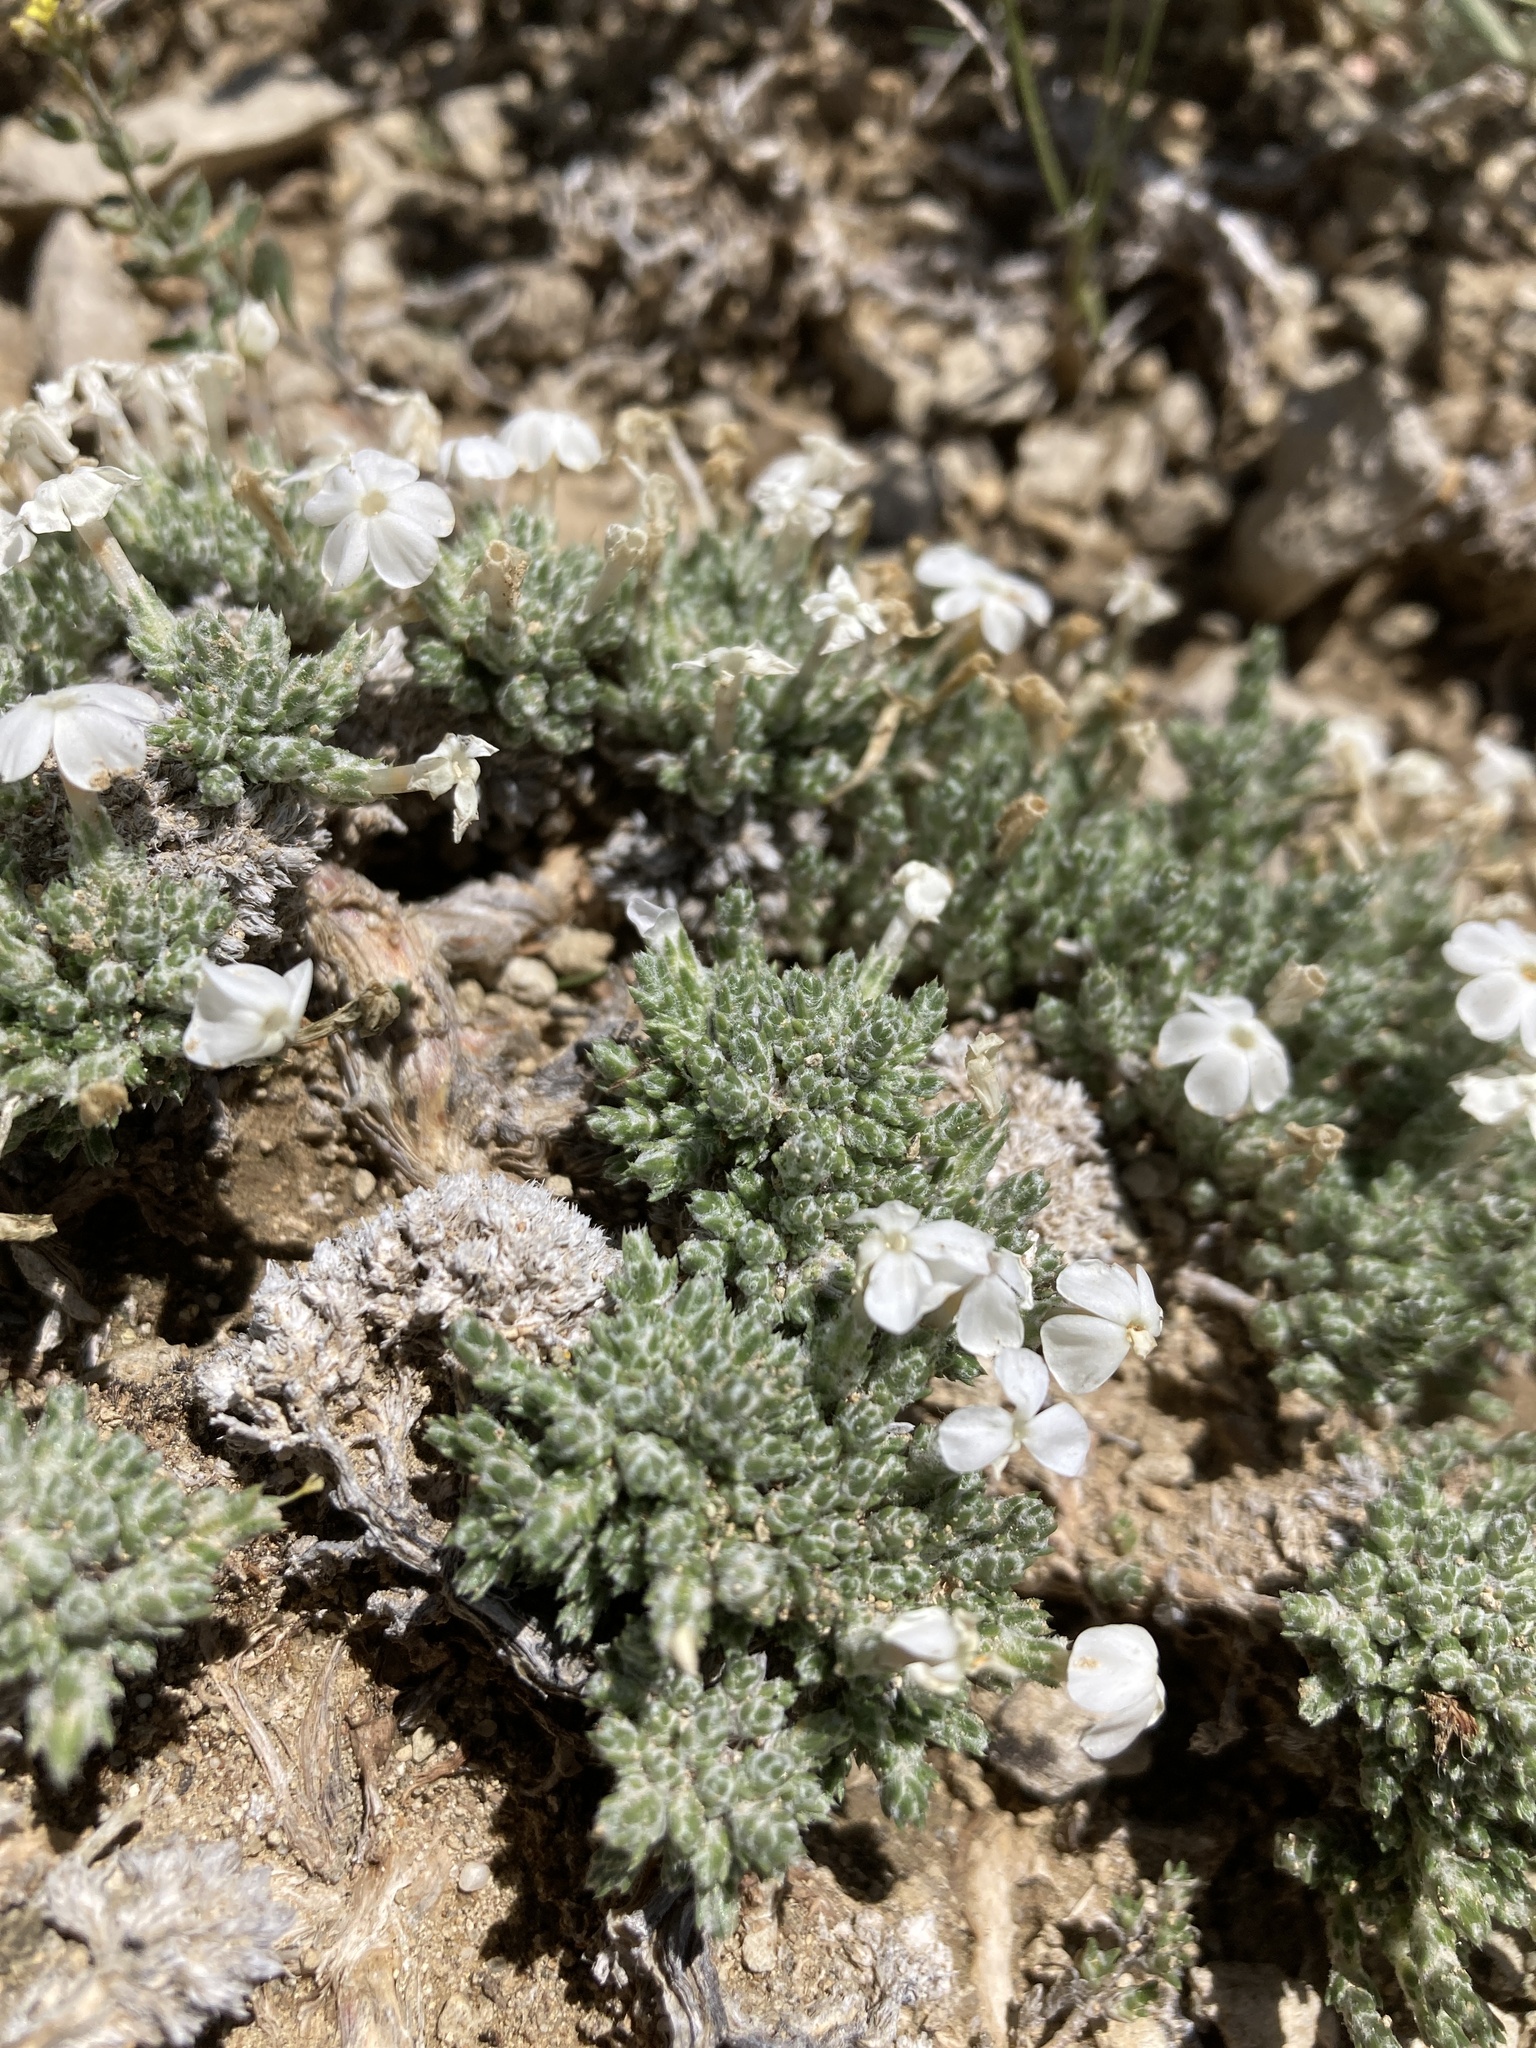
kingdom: Plantae
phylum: Tracheophyta
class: Magnoliopsida
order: Ericales
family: Polemoniaceae
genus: Phlox
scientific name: Phlox hoodii
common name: Moss phlox
